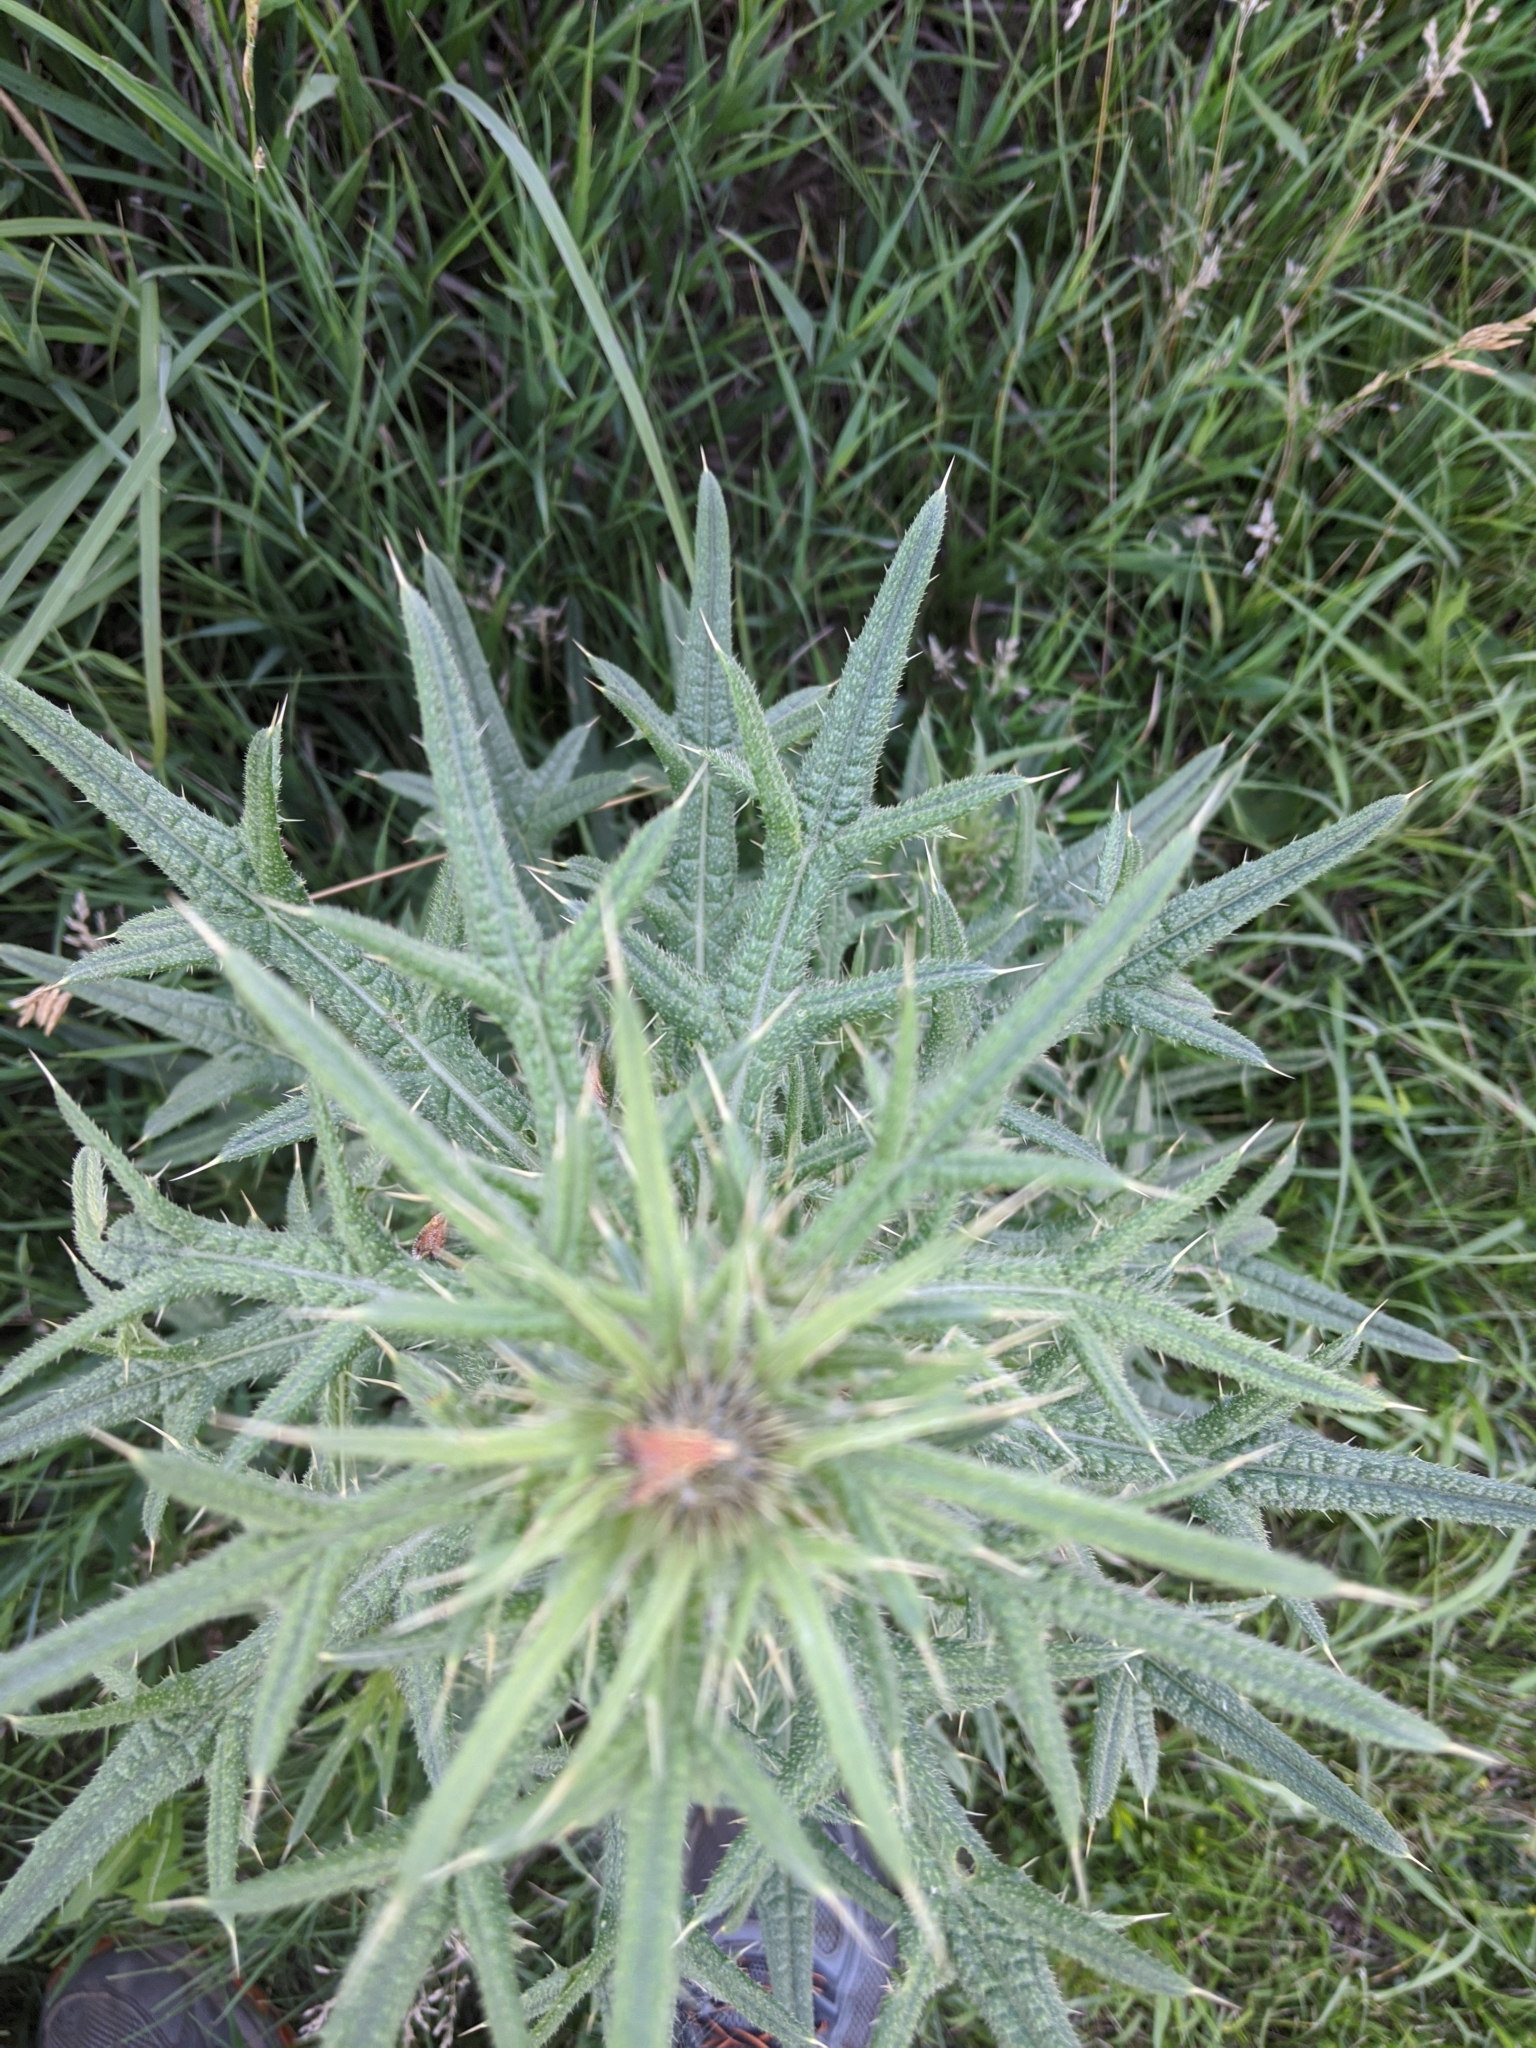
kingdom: Plantae
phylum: Tracheophyta
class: Magnoliopsida
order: Asterales
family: Asteraceae
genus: Cirsium
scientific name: Cirsium vulgare
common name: Bull thistle
